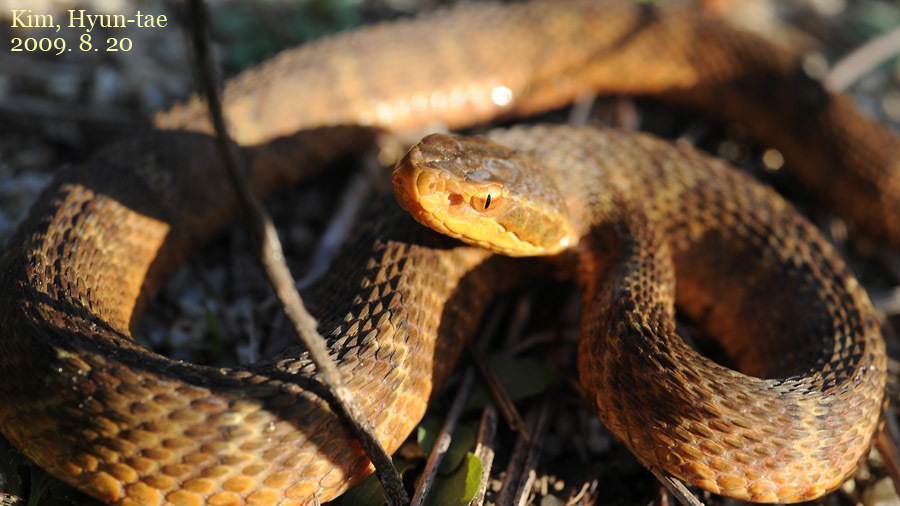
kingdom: Animalia
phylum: Chordata
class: Squamata
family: Viperidae
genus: Gloydius
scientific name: Gloydius ussuriensis
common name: Ussuri mamushi
